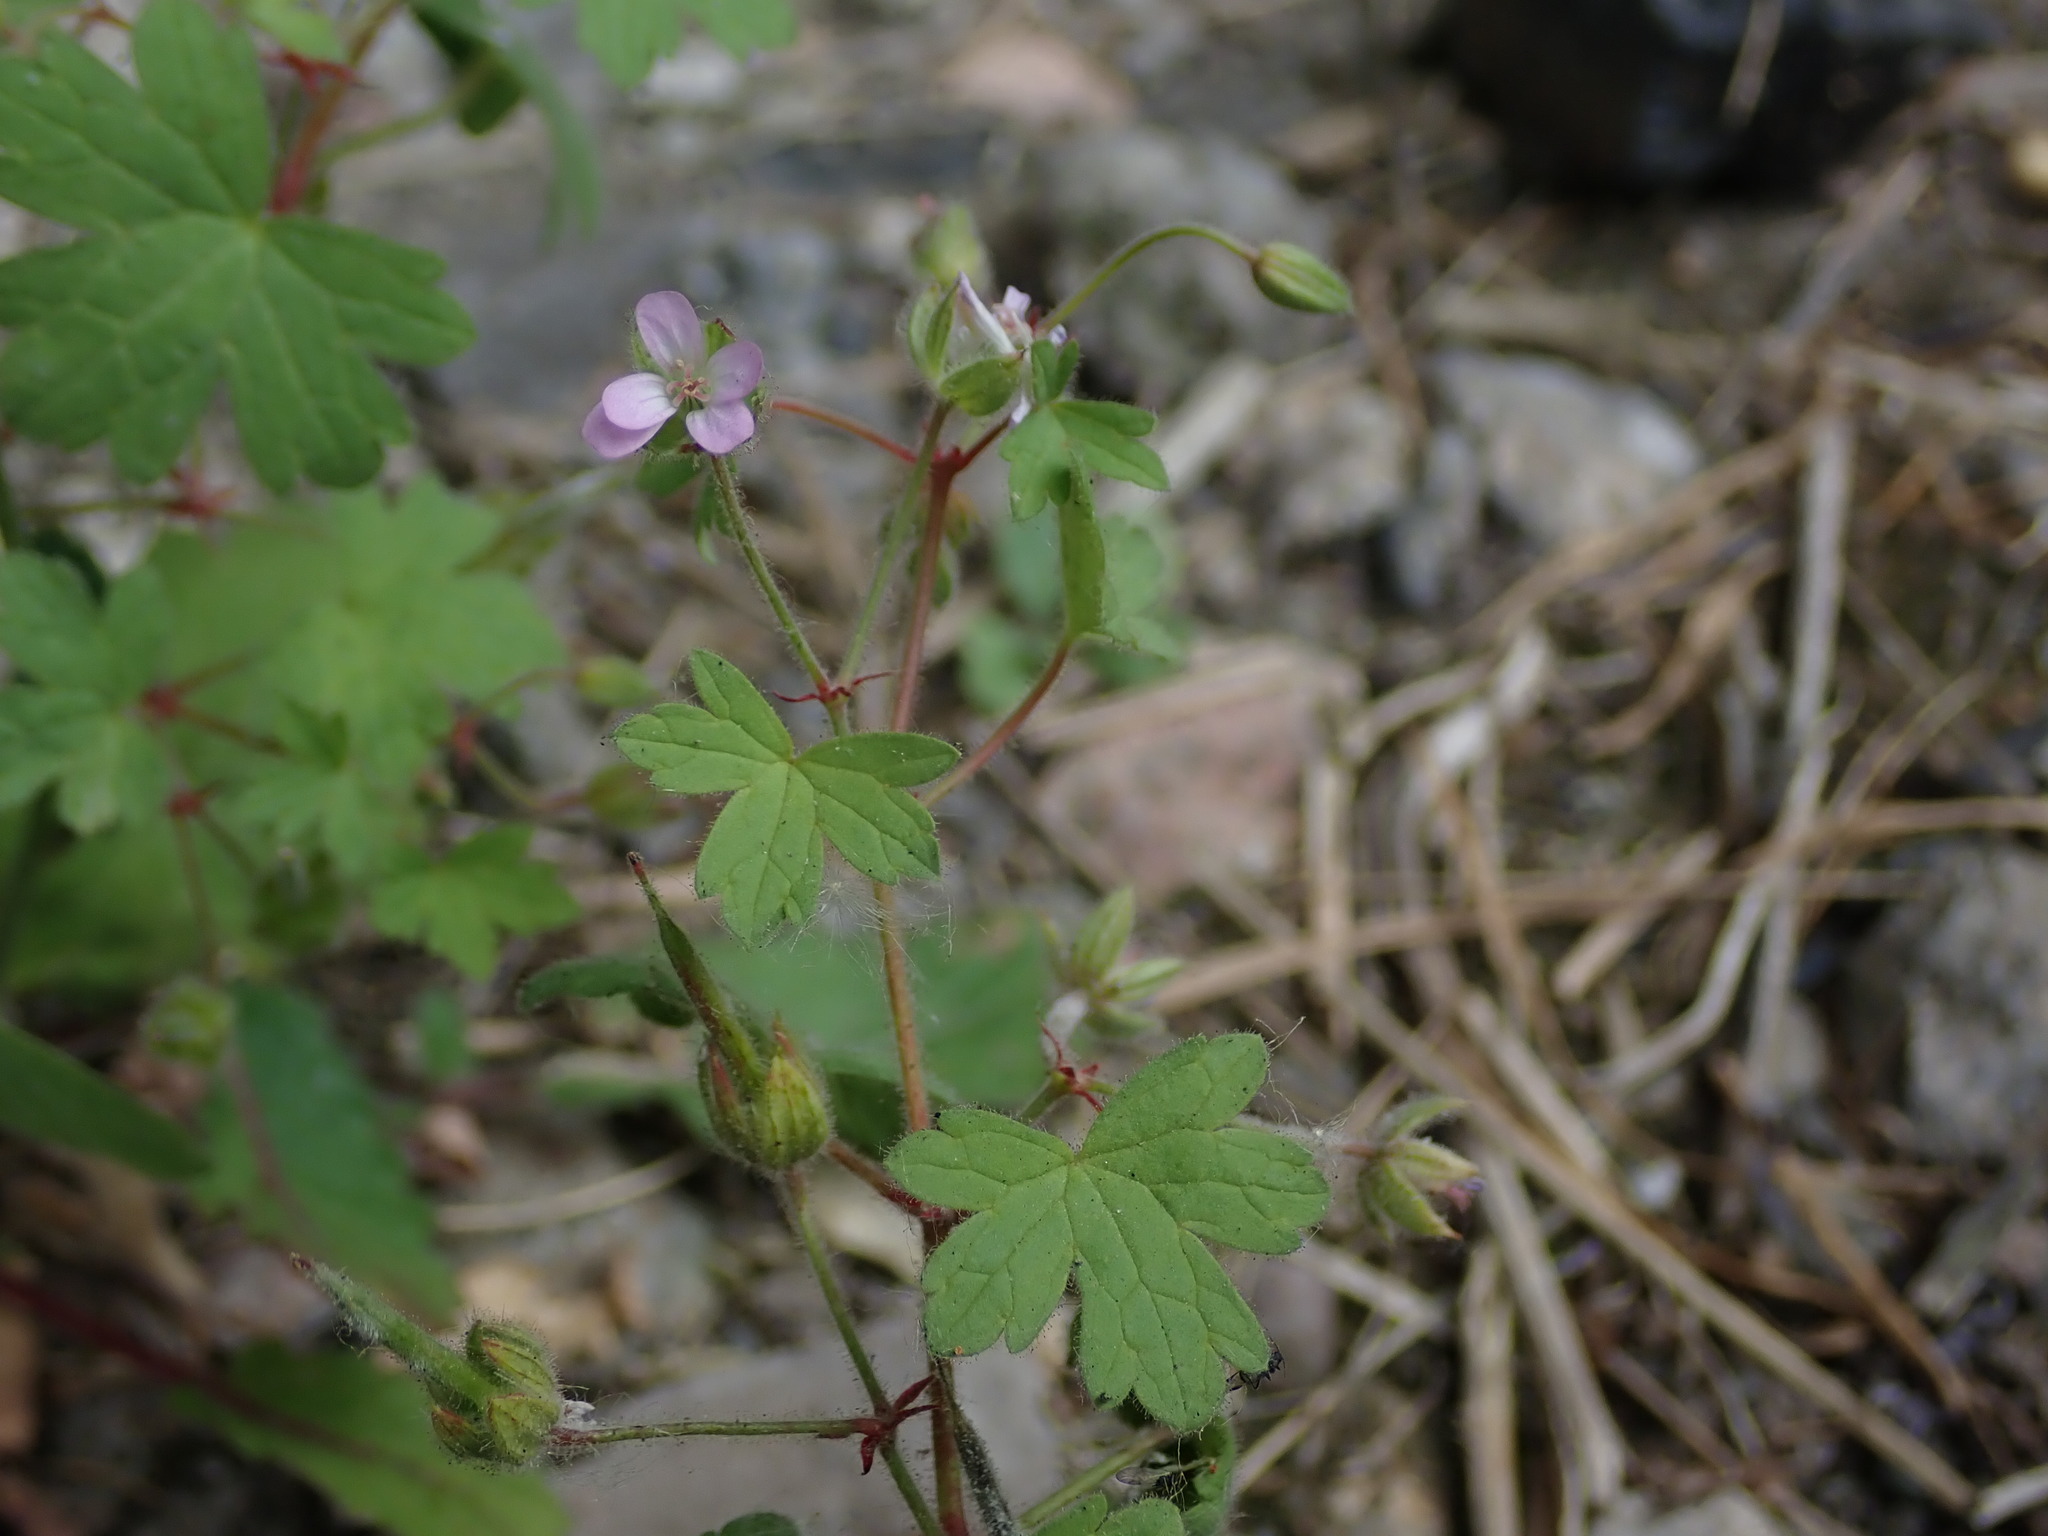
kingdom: Plantae
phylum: Tracheophyta
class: Magnoliopsida
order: Geraniales
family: Geraniaceae
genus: Geranium
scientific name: Geranium rotundifolium
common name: Round-leaved crane's-bill
